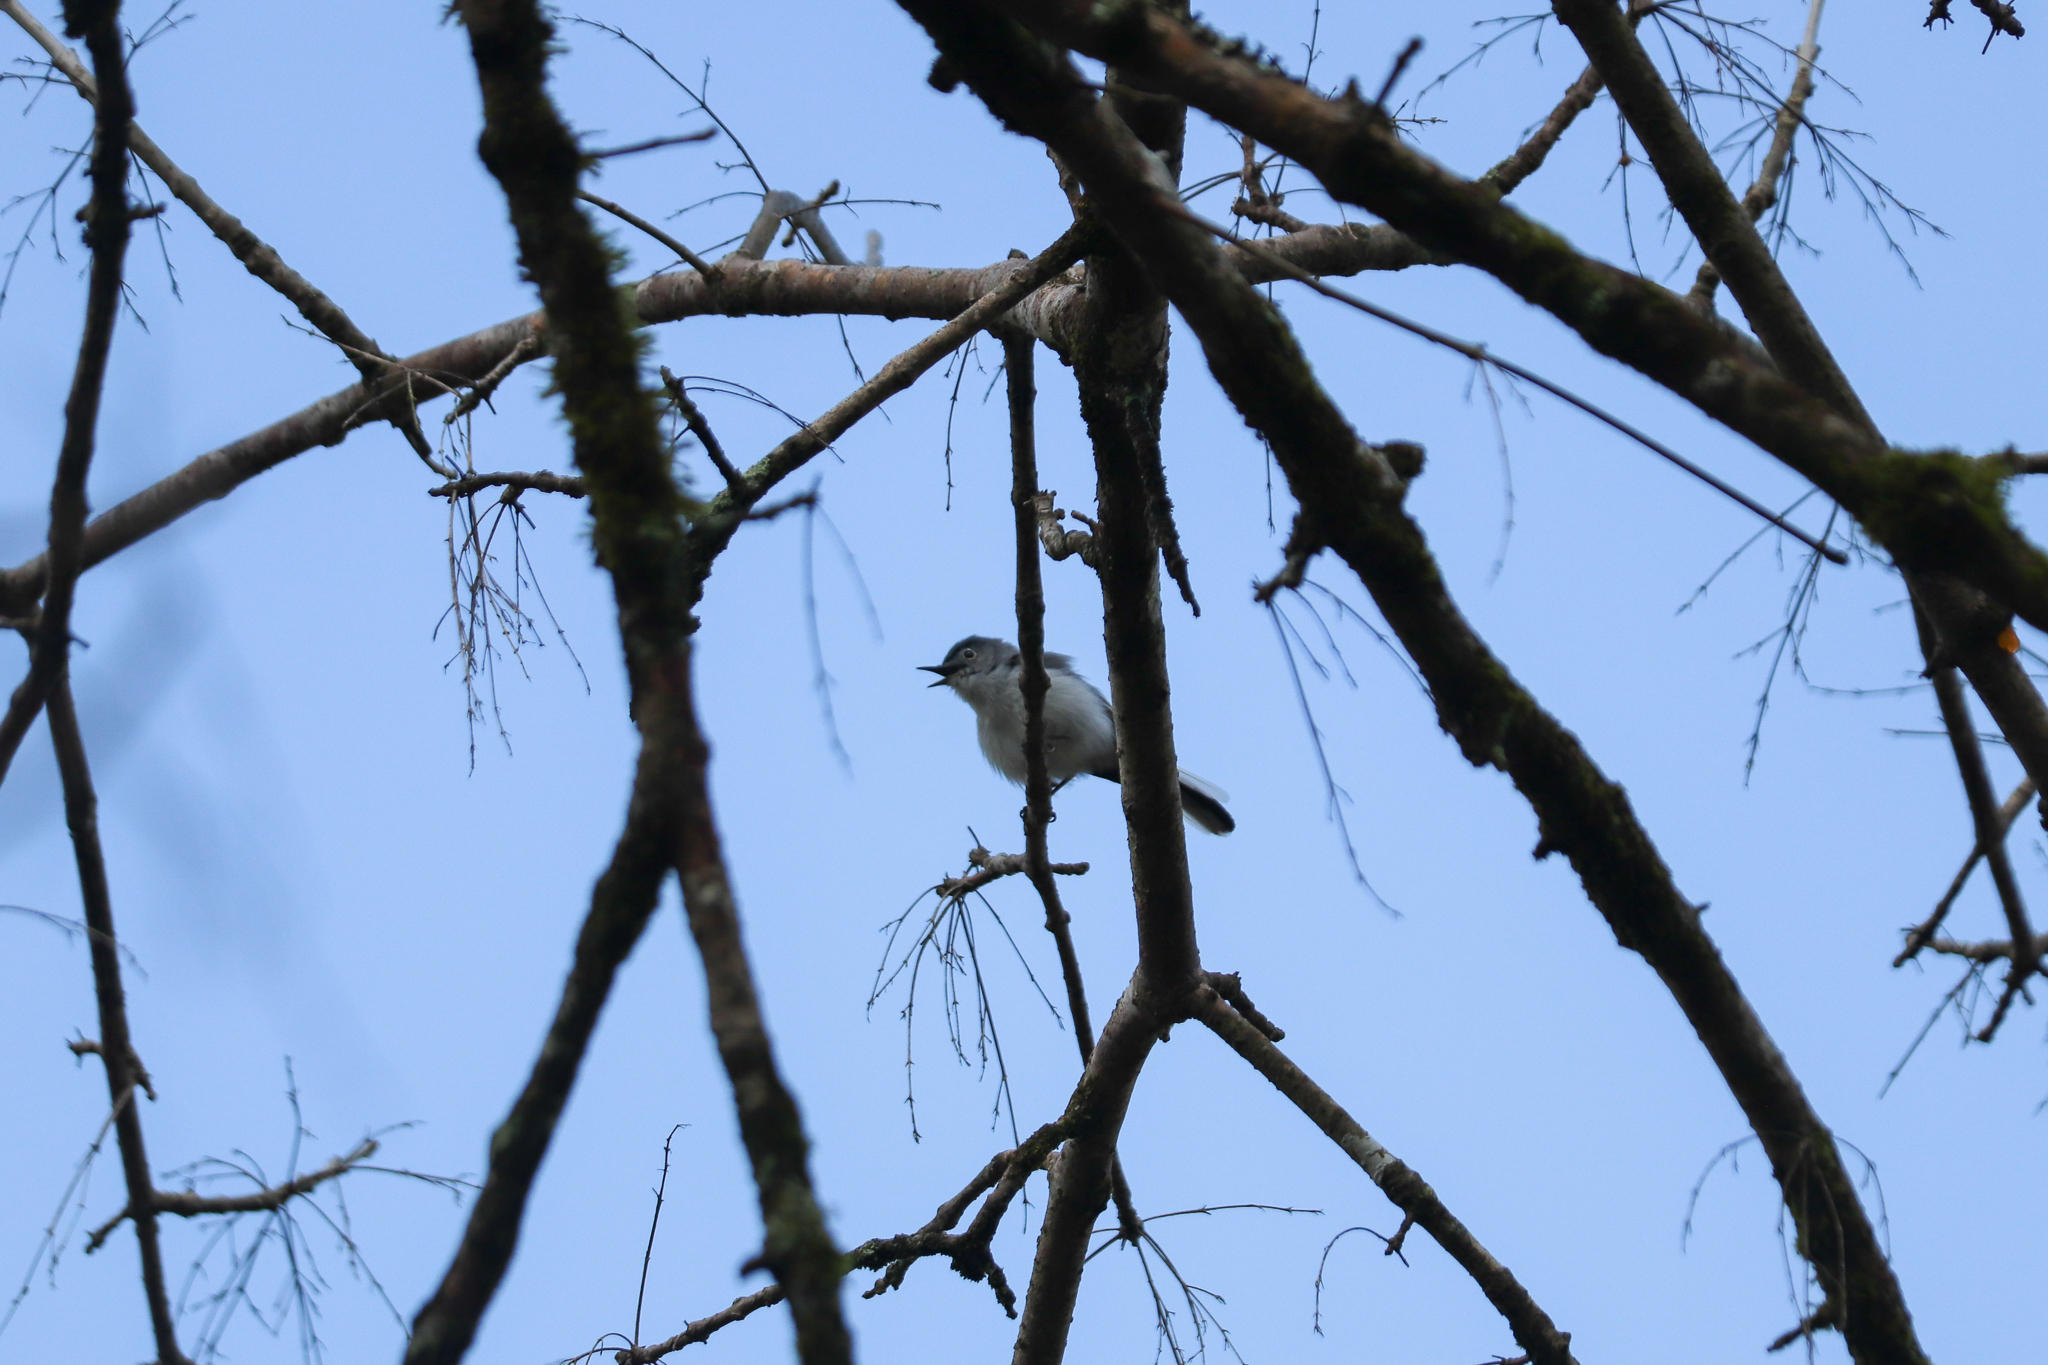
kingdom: Animalia
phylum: Chordata
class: Aves
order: Passeriformes
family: Polioptilidae
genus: Polioptila
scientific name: Polioptila caerulea
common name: Blue-gray gnatcatcher
